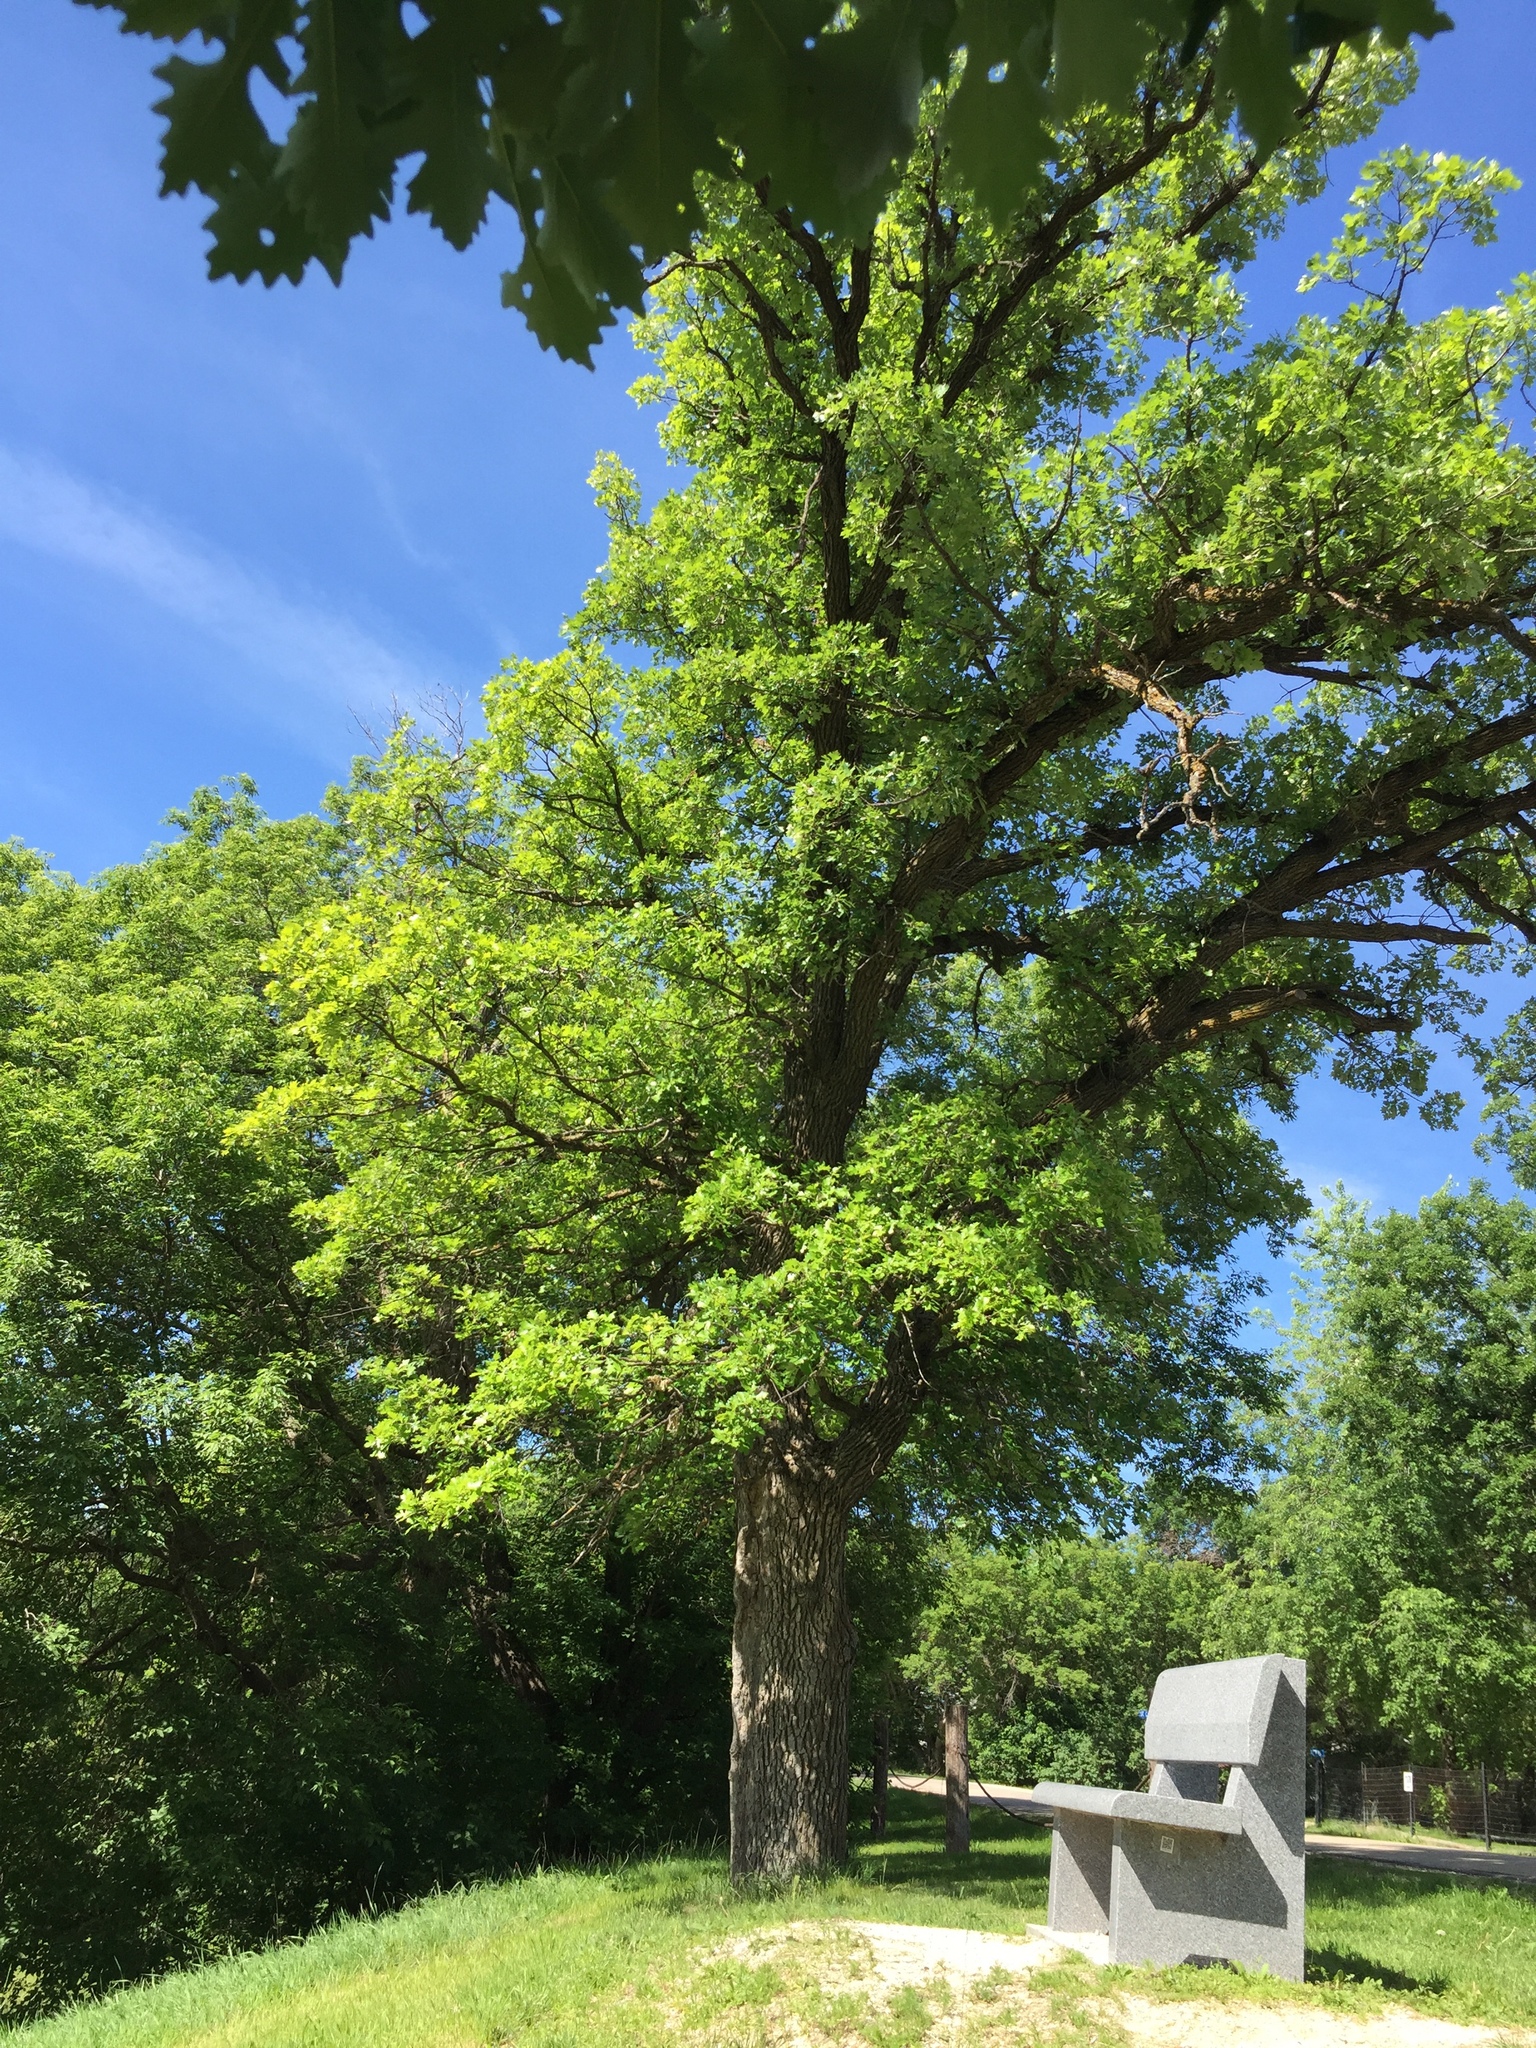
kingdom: Plantae
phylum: Tracheophyta
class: Magnoliopsida
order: Fagales
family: Fagaceae
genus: Quercus
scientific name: Quercus macrocarpa
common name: Bur oak
